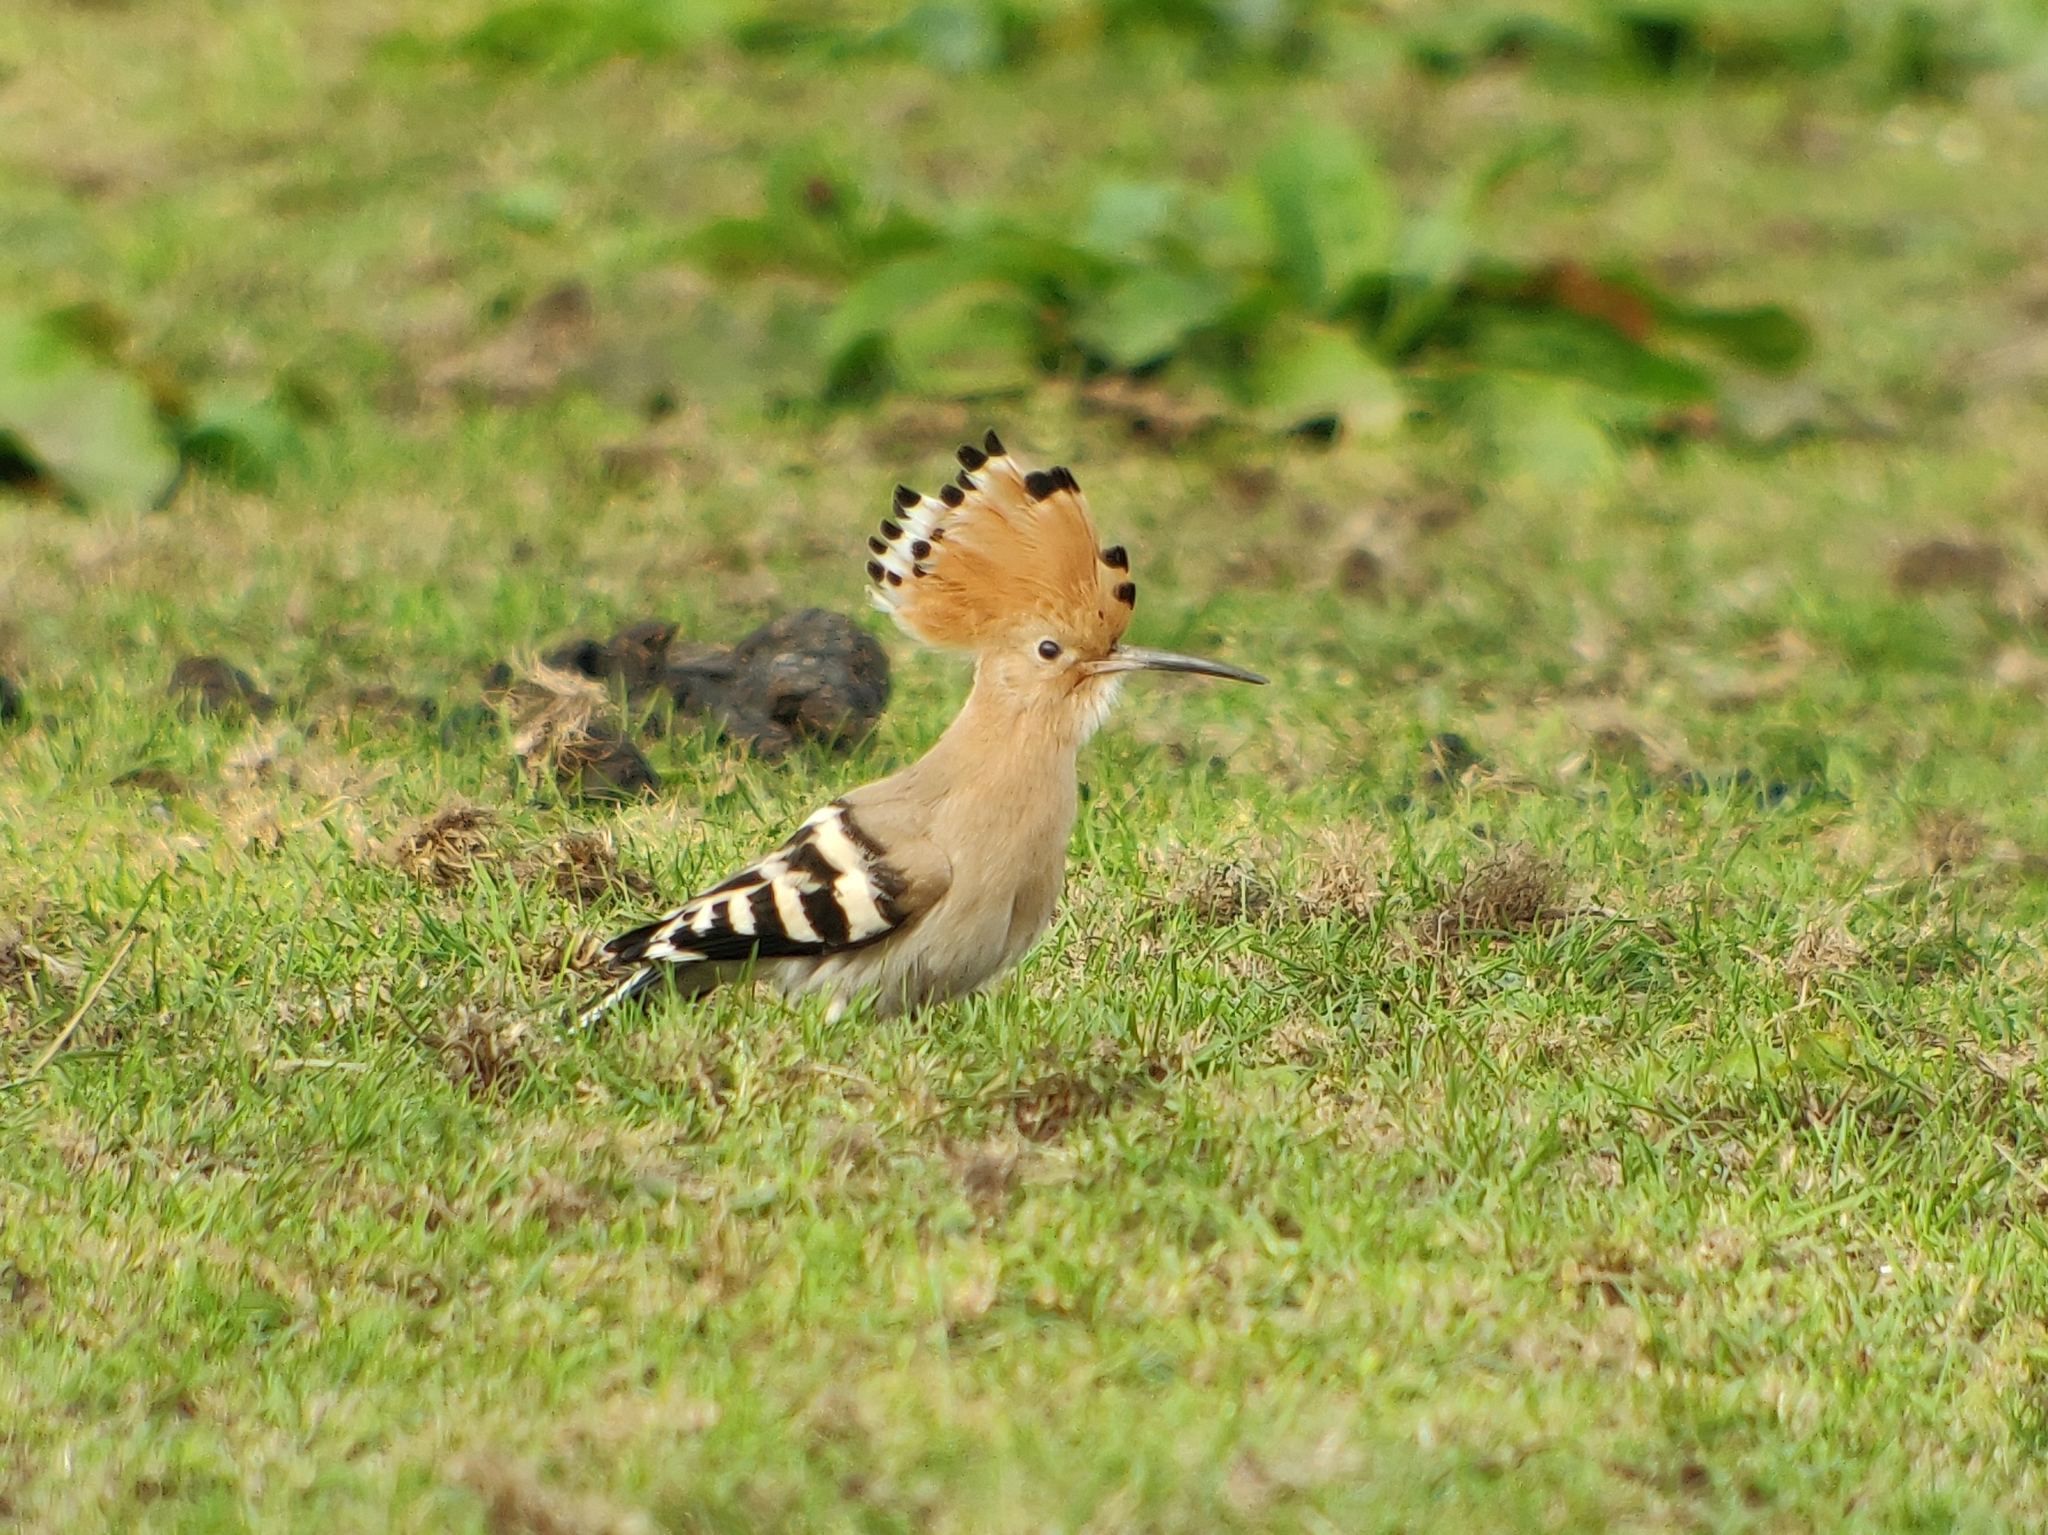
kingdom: Animalia
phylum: Chordata
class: Aves
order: Bucerotiformes
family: Upupidae
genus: Upupa
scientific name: Upupa epops
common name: Eurasian hoopoe
